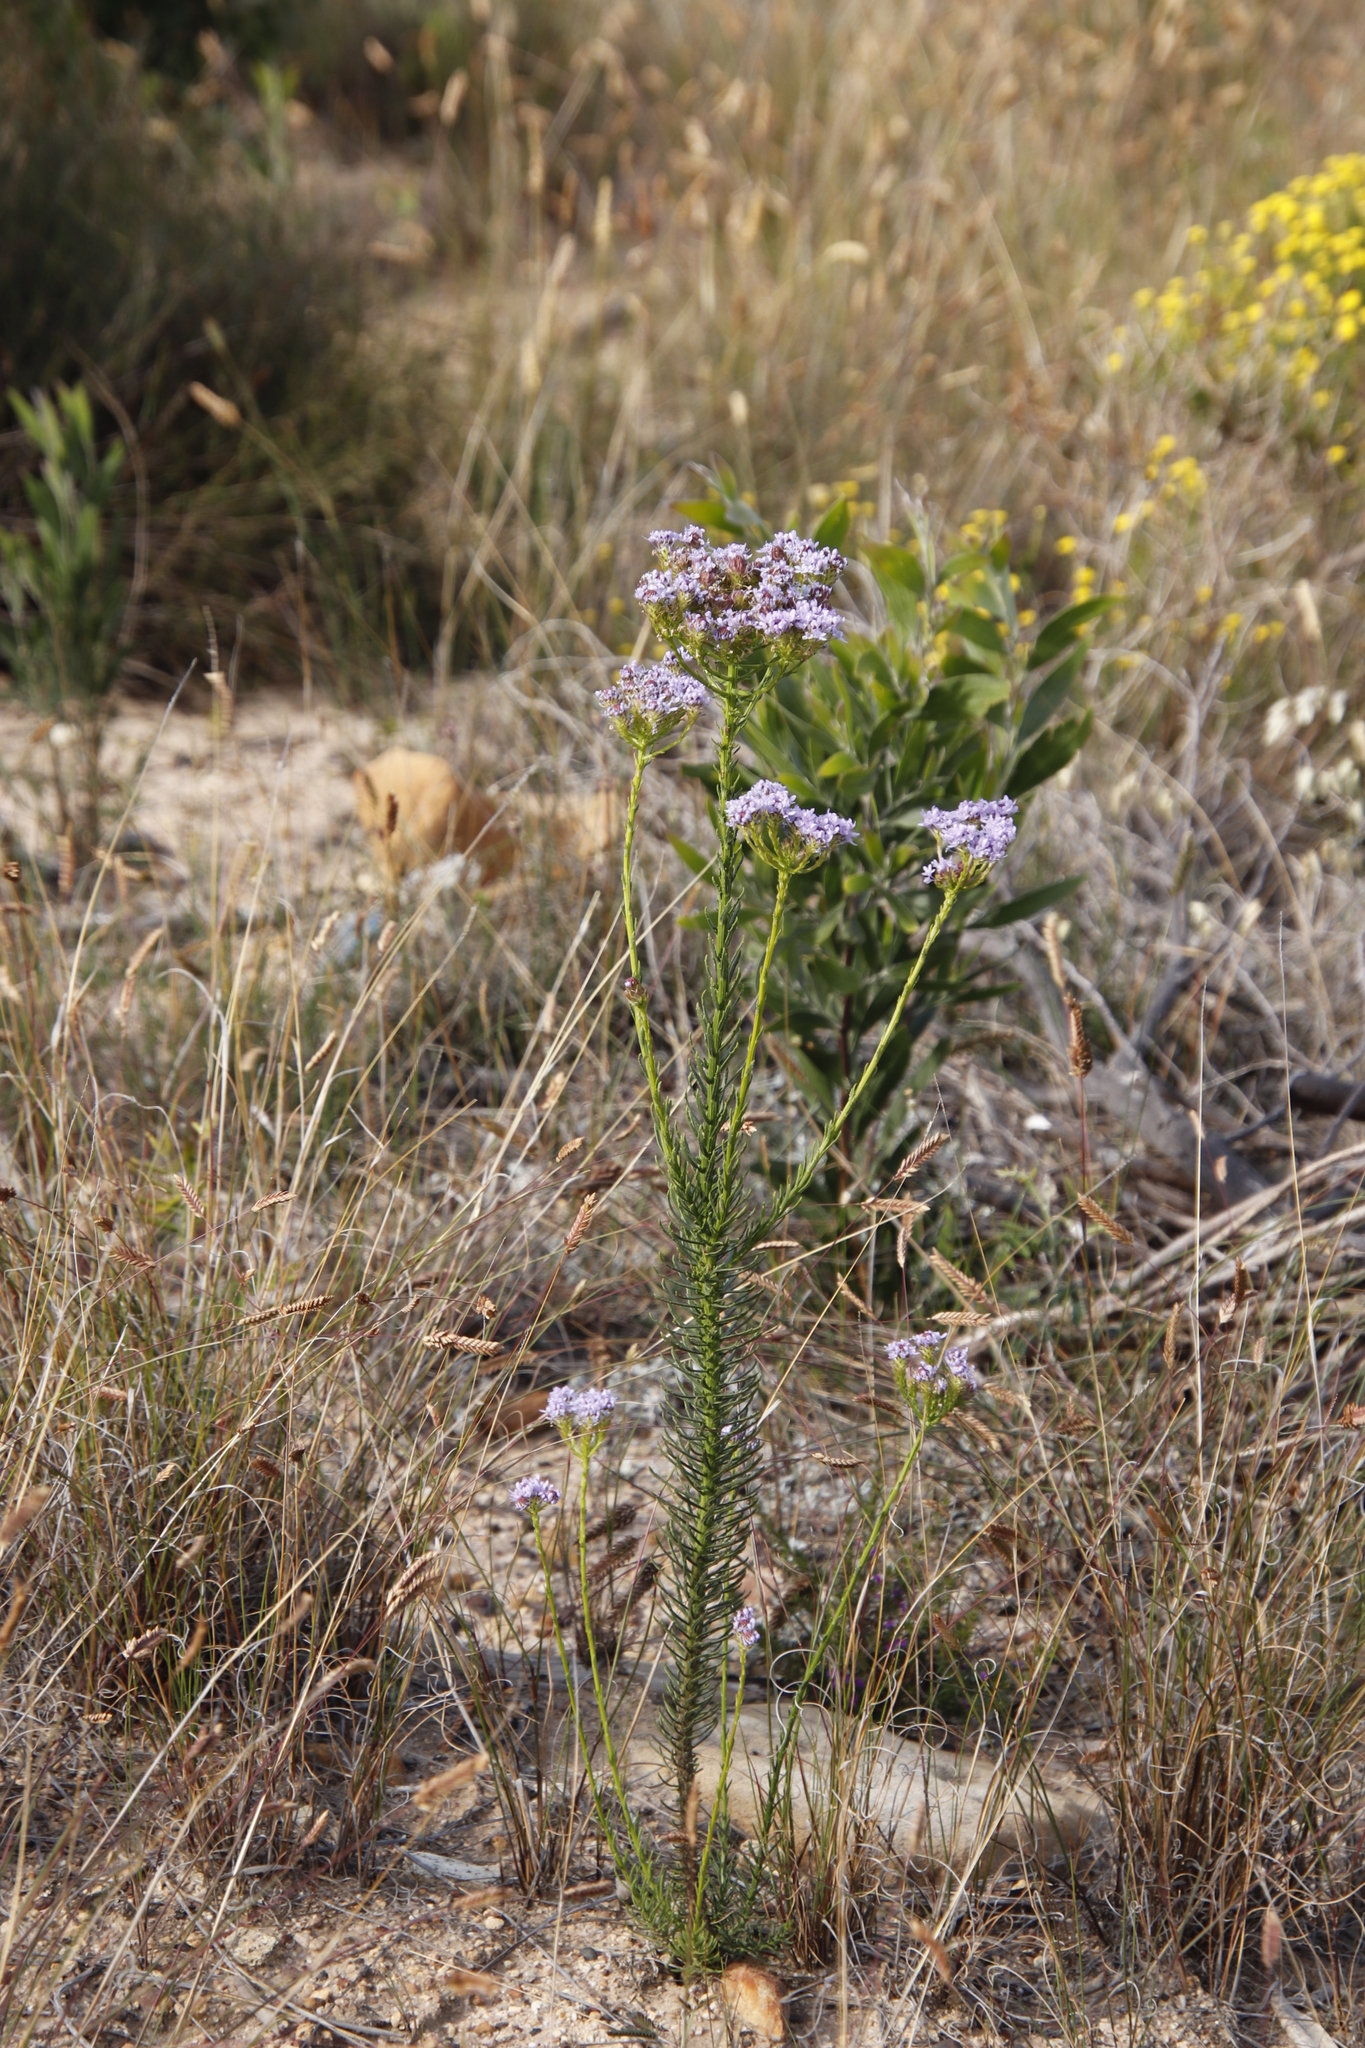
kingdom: Plantae
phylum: Tracheophyta
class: Magnoliopsida
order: Lamiales
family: Scrophulariaceae
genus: Pseudoselago
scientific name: Pseudoselago spuria
